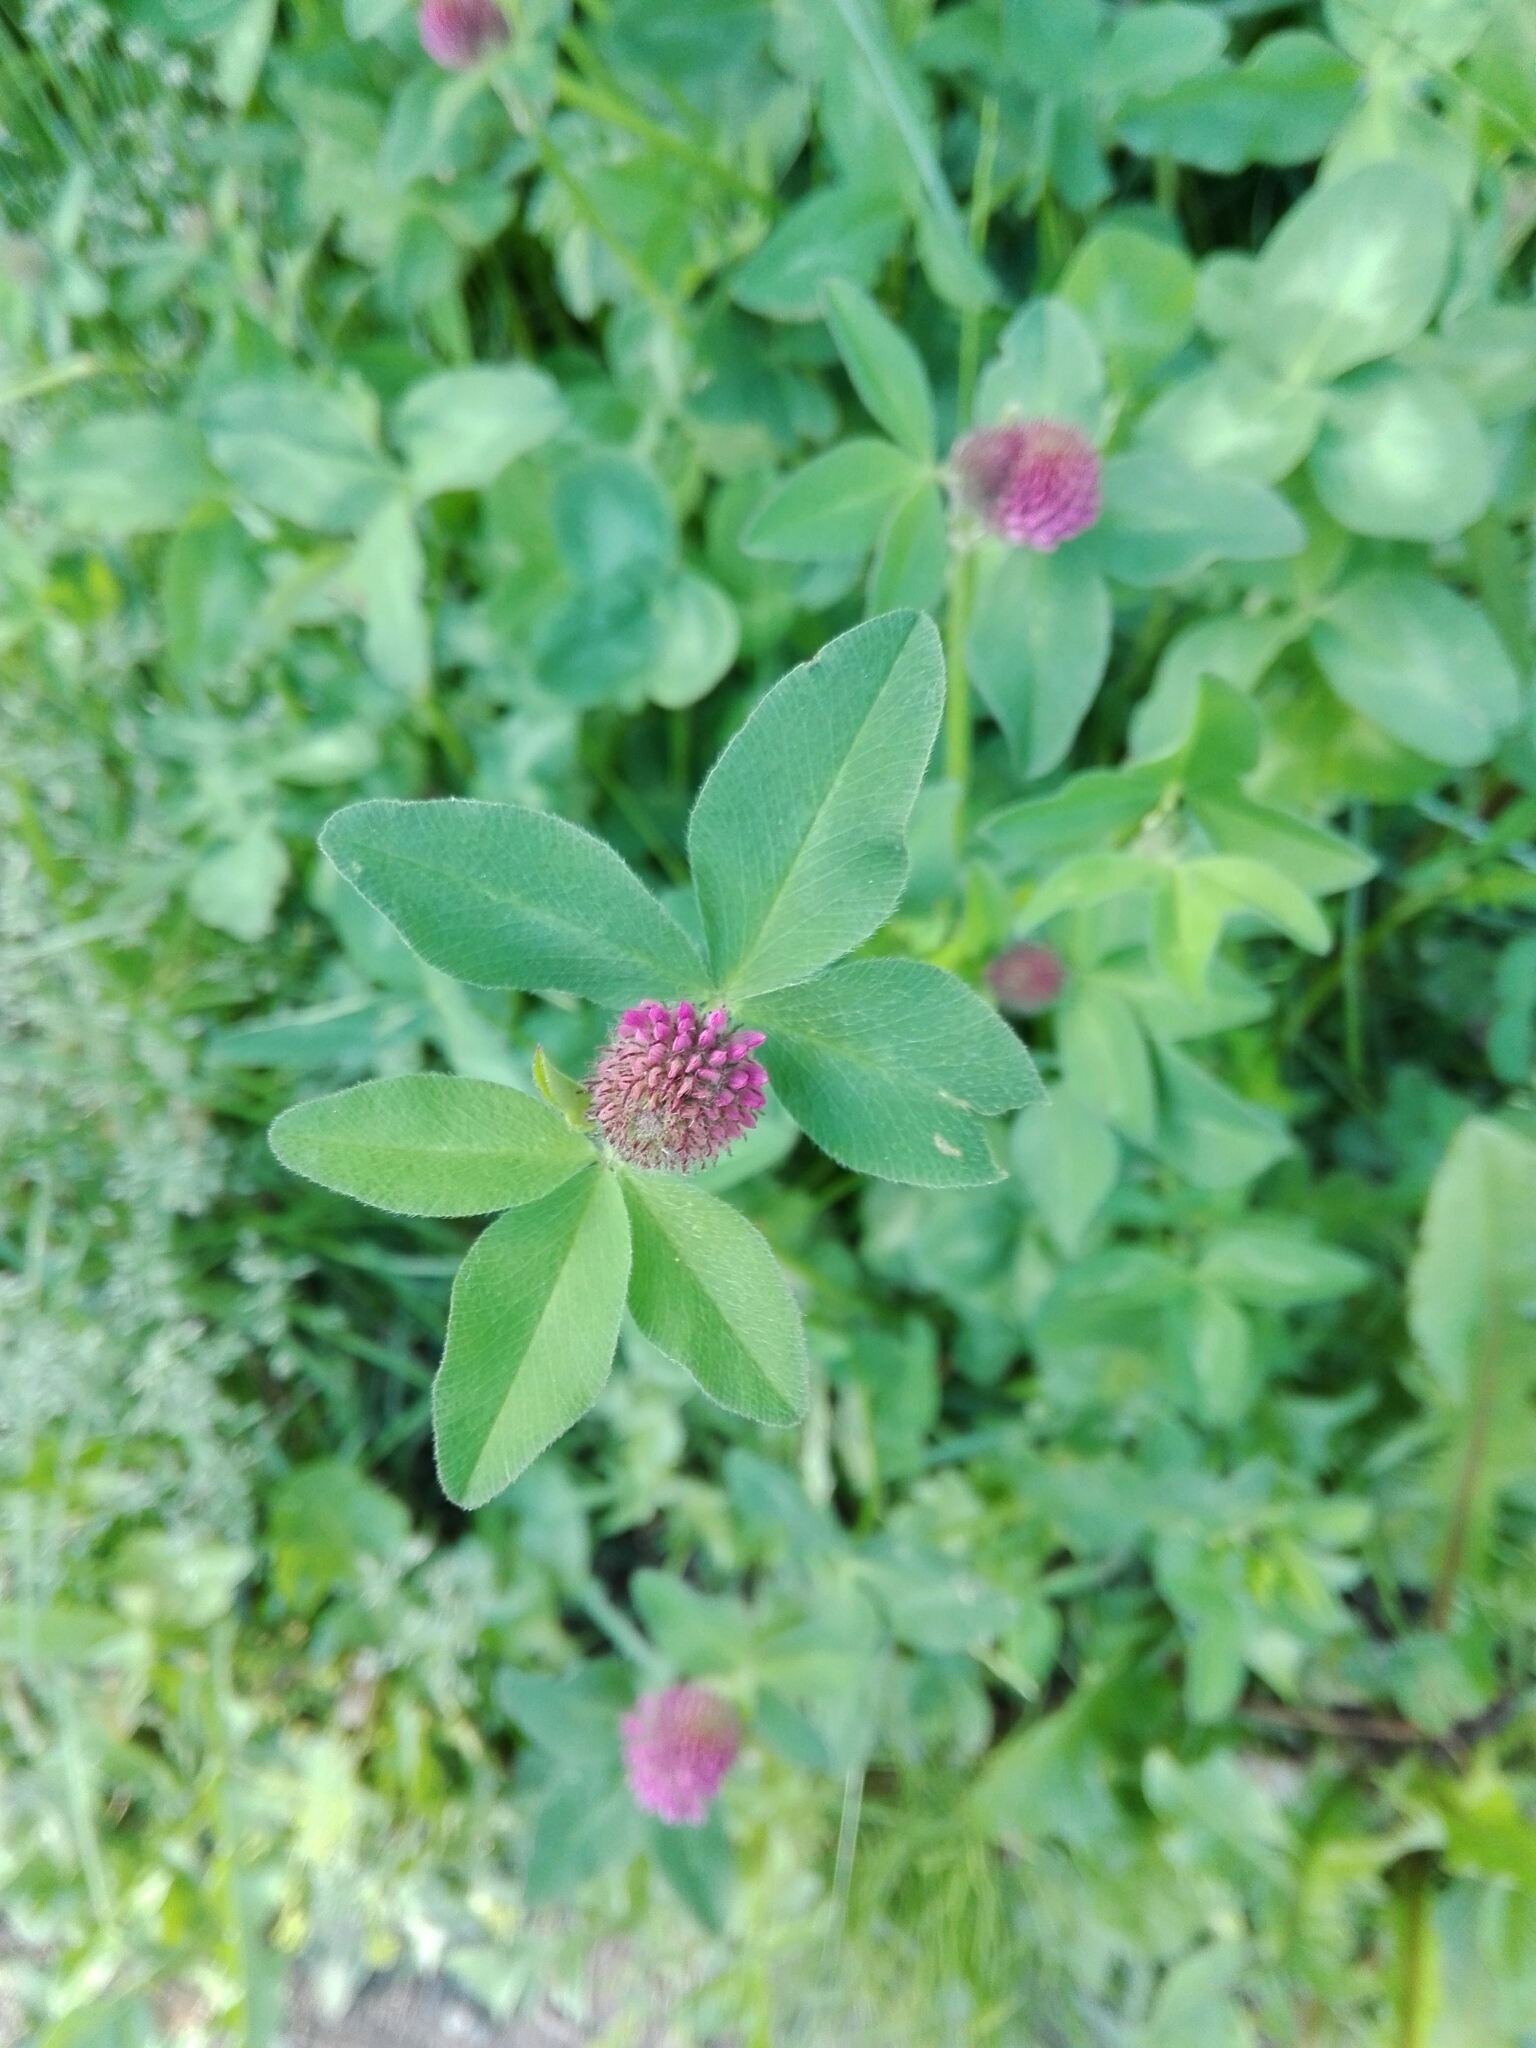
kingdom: Plantae
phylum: Tracheophyta
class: Magnoliopsida
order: Fabales
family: Fabaceae
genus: Trifolium
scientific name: Trifolium pratense
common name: Red clover
